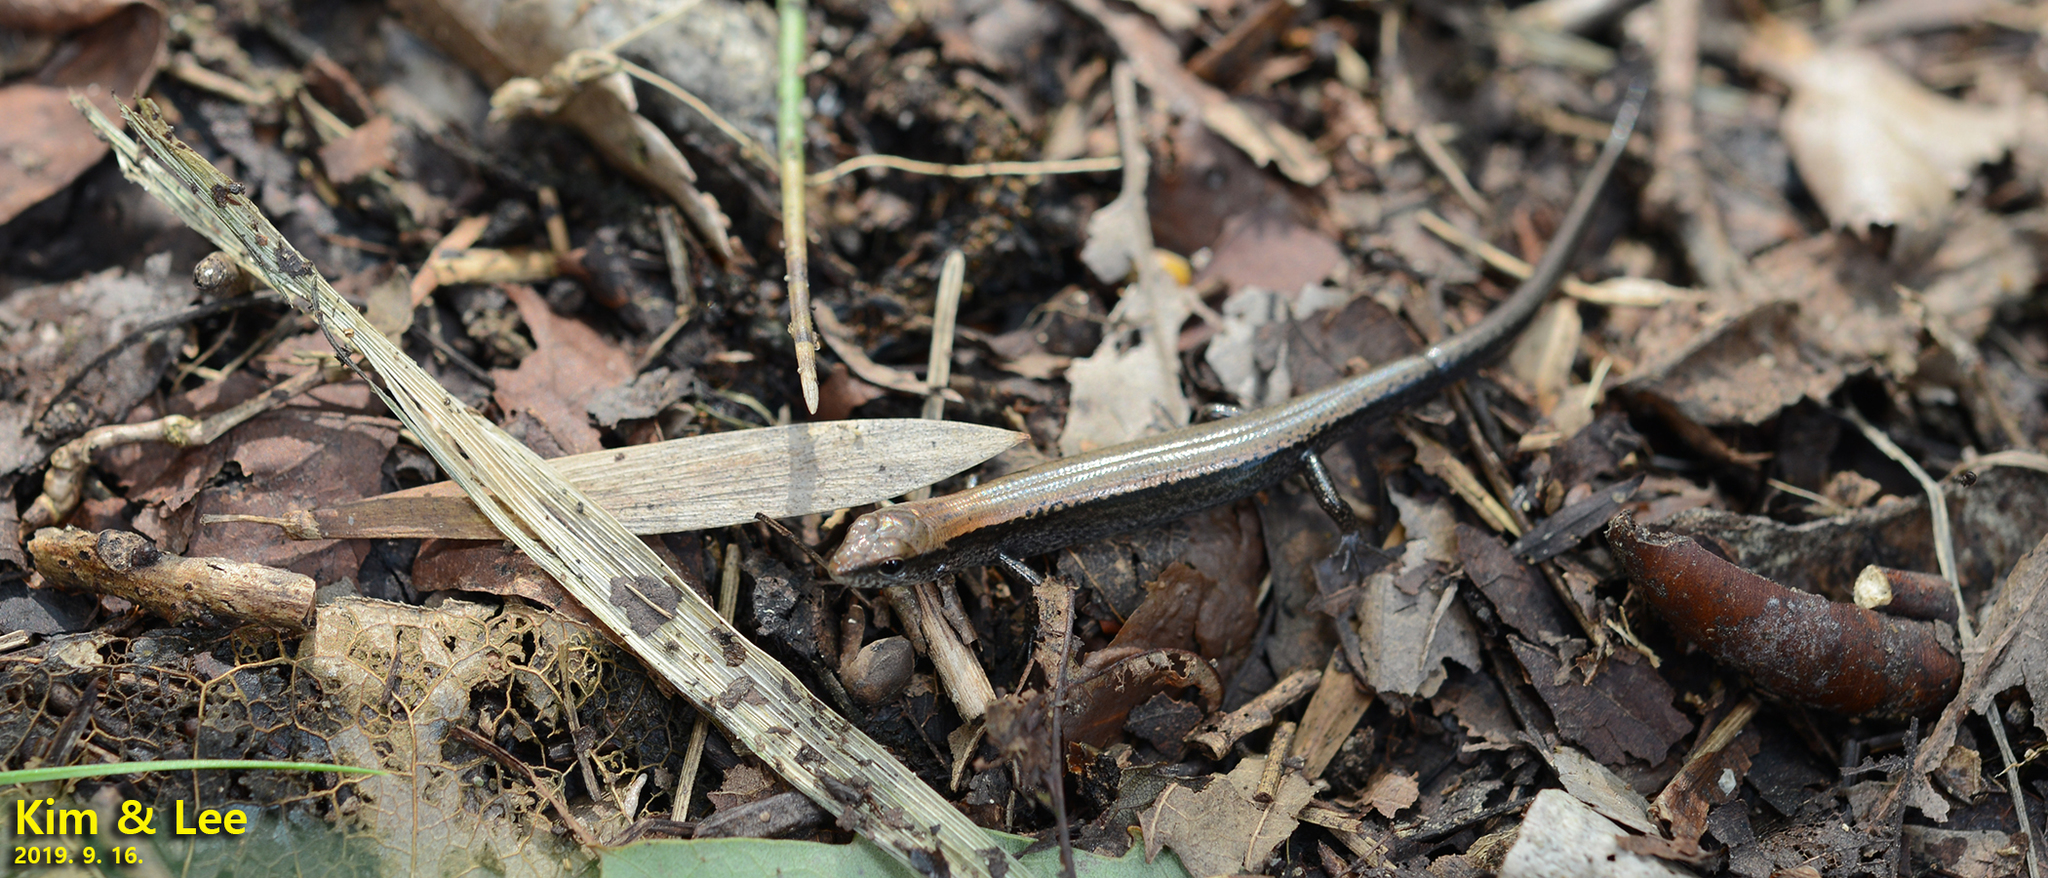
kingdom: Animalia
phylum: Chordata
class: Squamata
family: Scincidae
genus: Scincella
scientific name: Scincella vandenburghi
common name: Tsushima smooth skink
